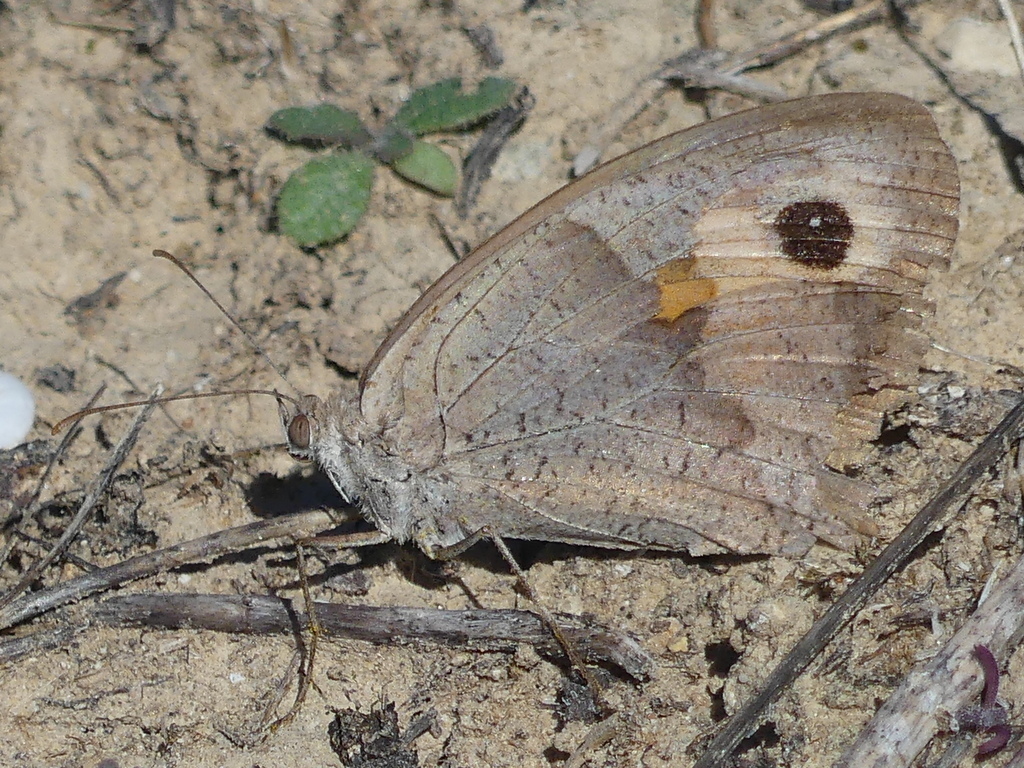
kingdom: Animalia
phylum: Arthropoda
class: Insecta
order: Lepidoptera
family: Nymphalidae
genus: Maniola
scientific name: Maniola jurtina
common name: Meadow brown
